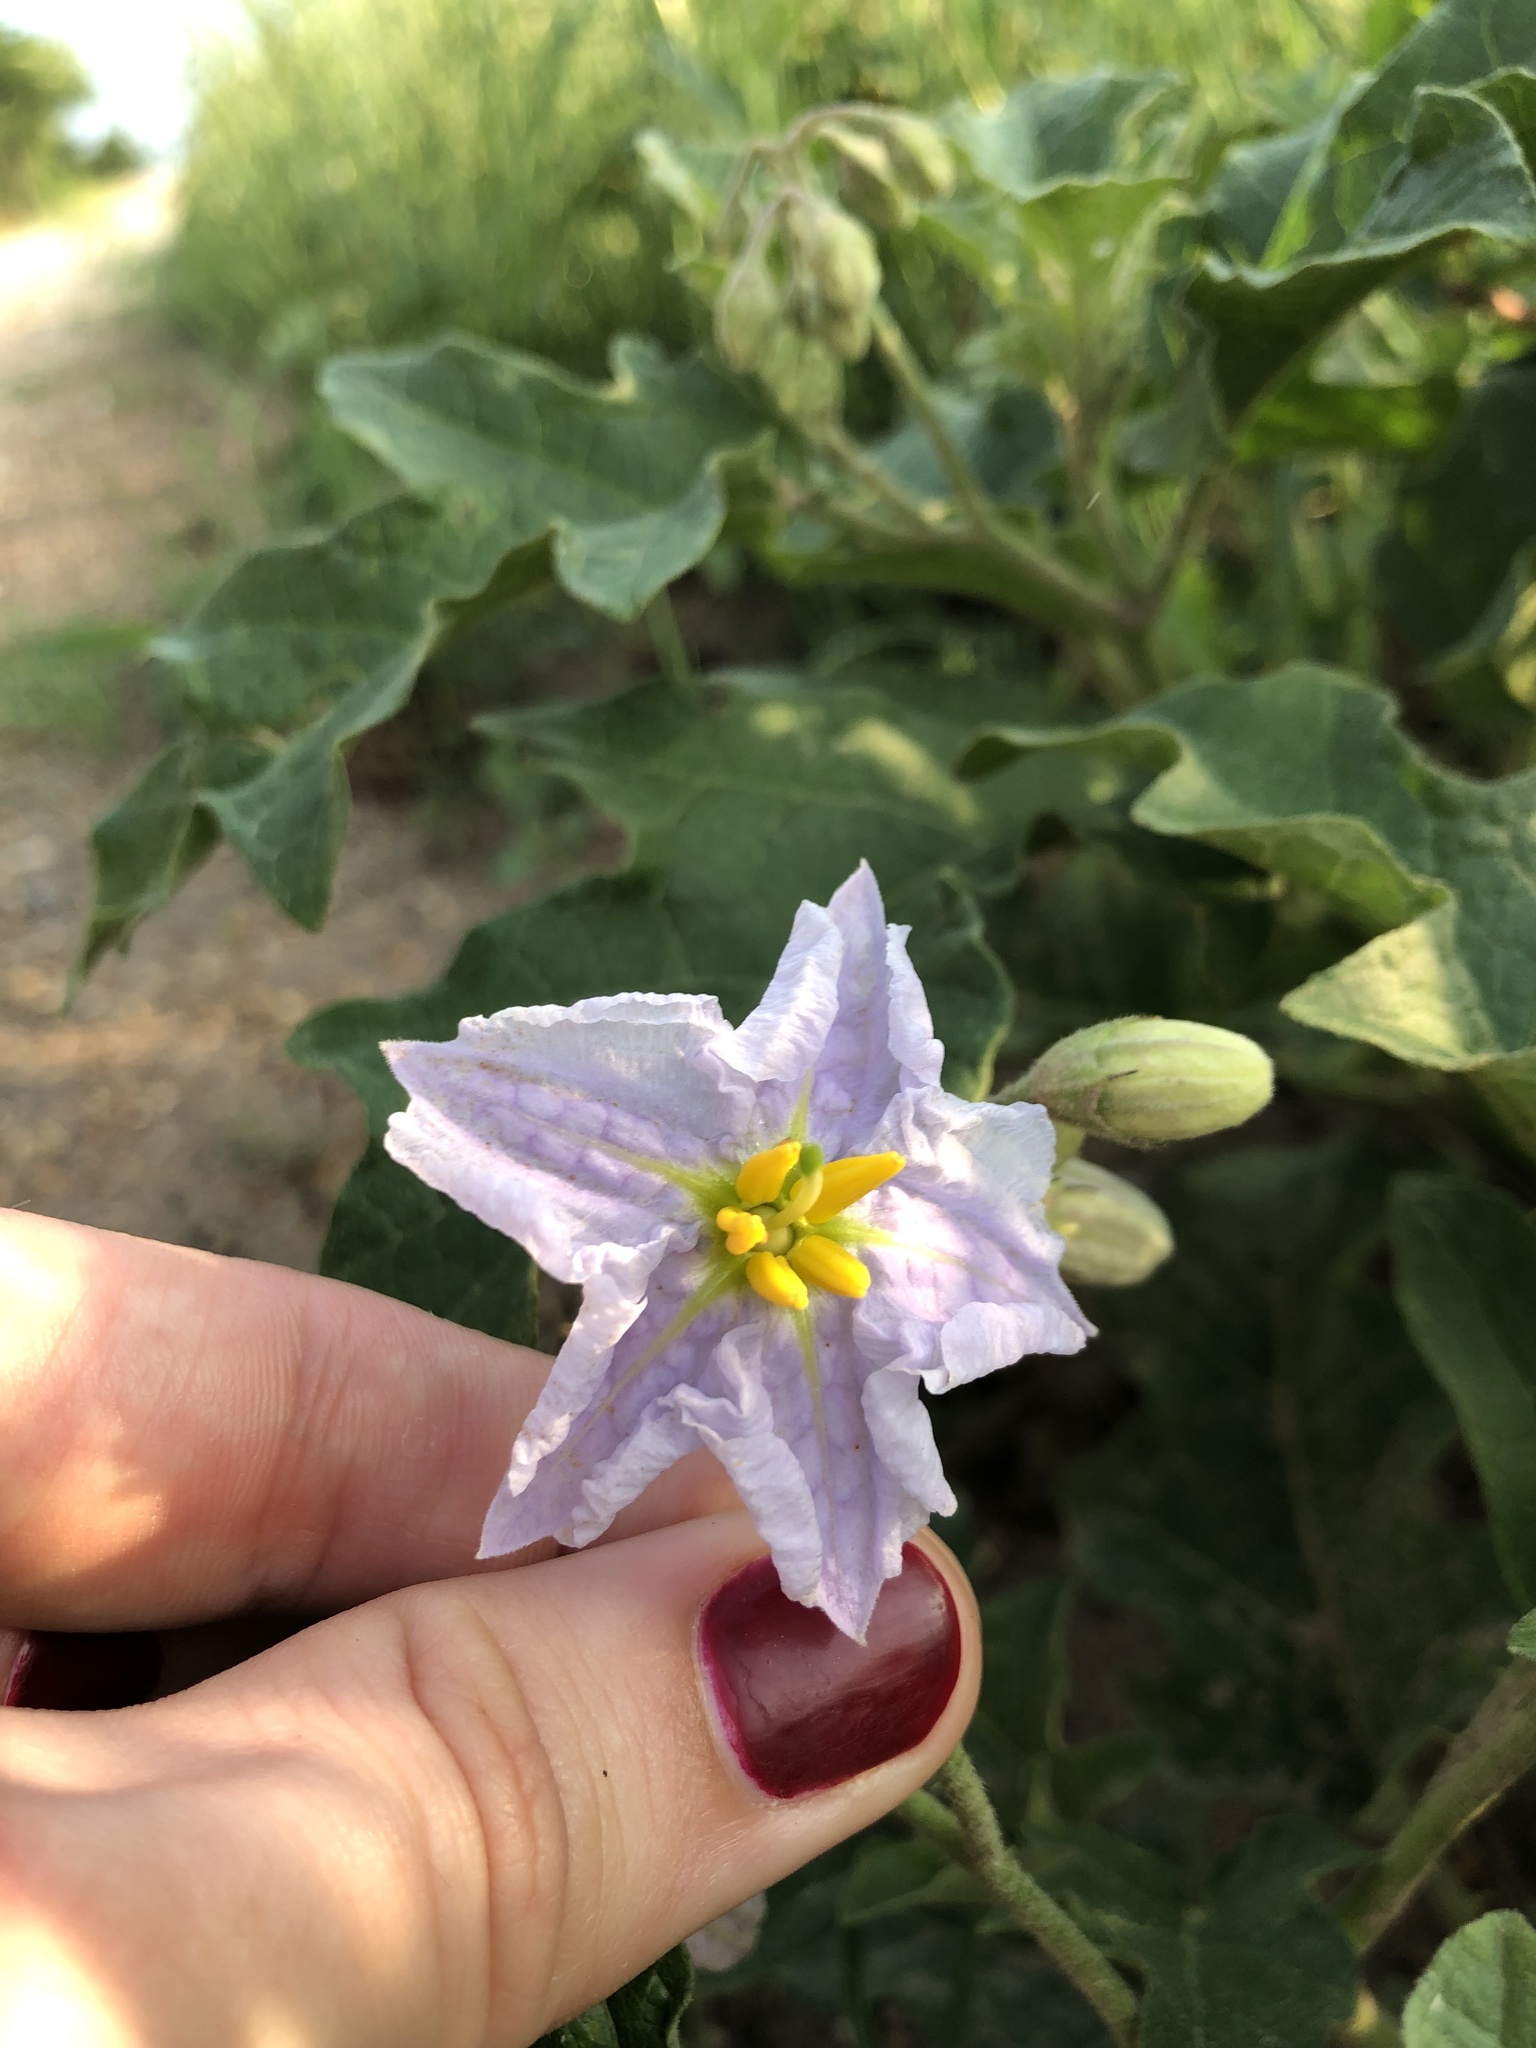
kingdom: Plantae
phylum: Tracheophyta
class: Magnoliopsida
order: Solanales
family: Solanaceae
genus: Solanum
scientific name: Solanum dimidiatum
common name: Carolina horse-nettle
